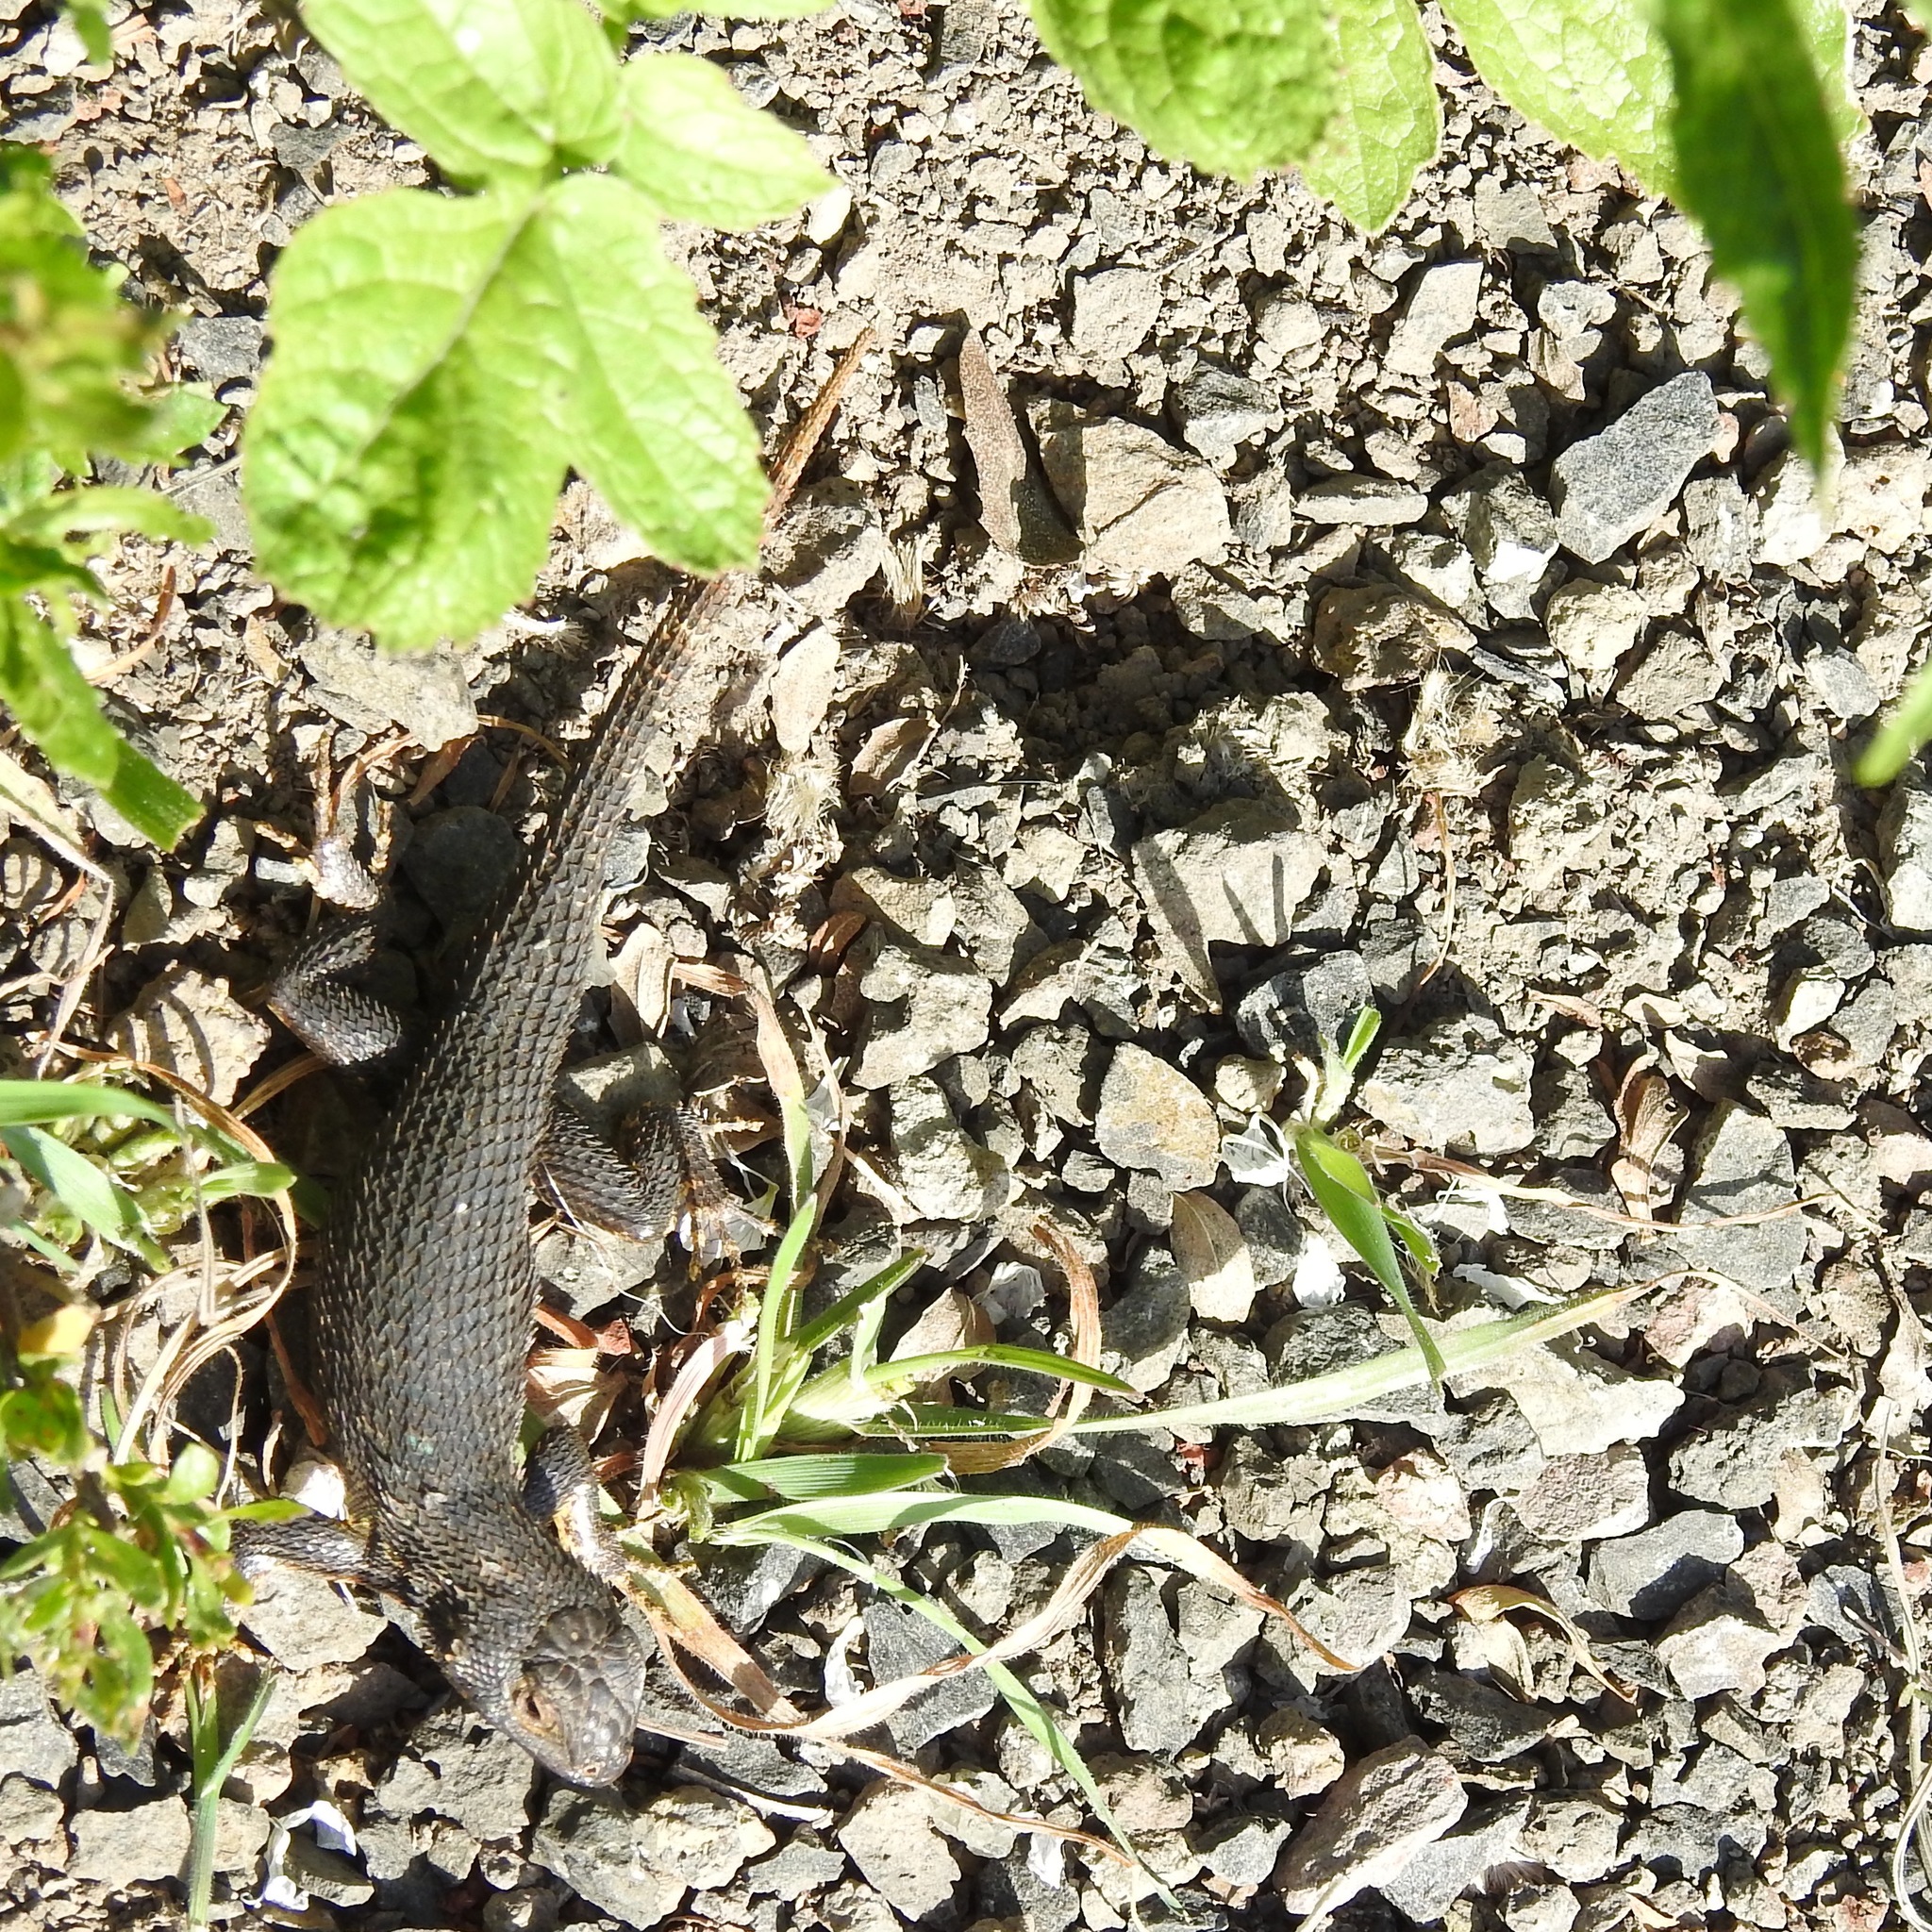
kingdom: Animalia
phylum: Chordata
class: Squamata
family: Phrynosomatidae
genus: Sceloporus
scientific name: Sceloporus occidentalis
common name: Western fence lizard
